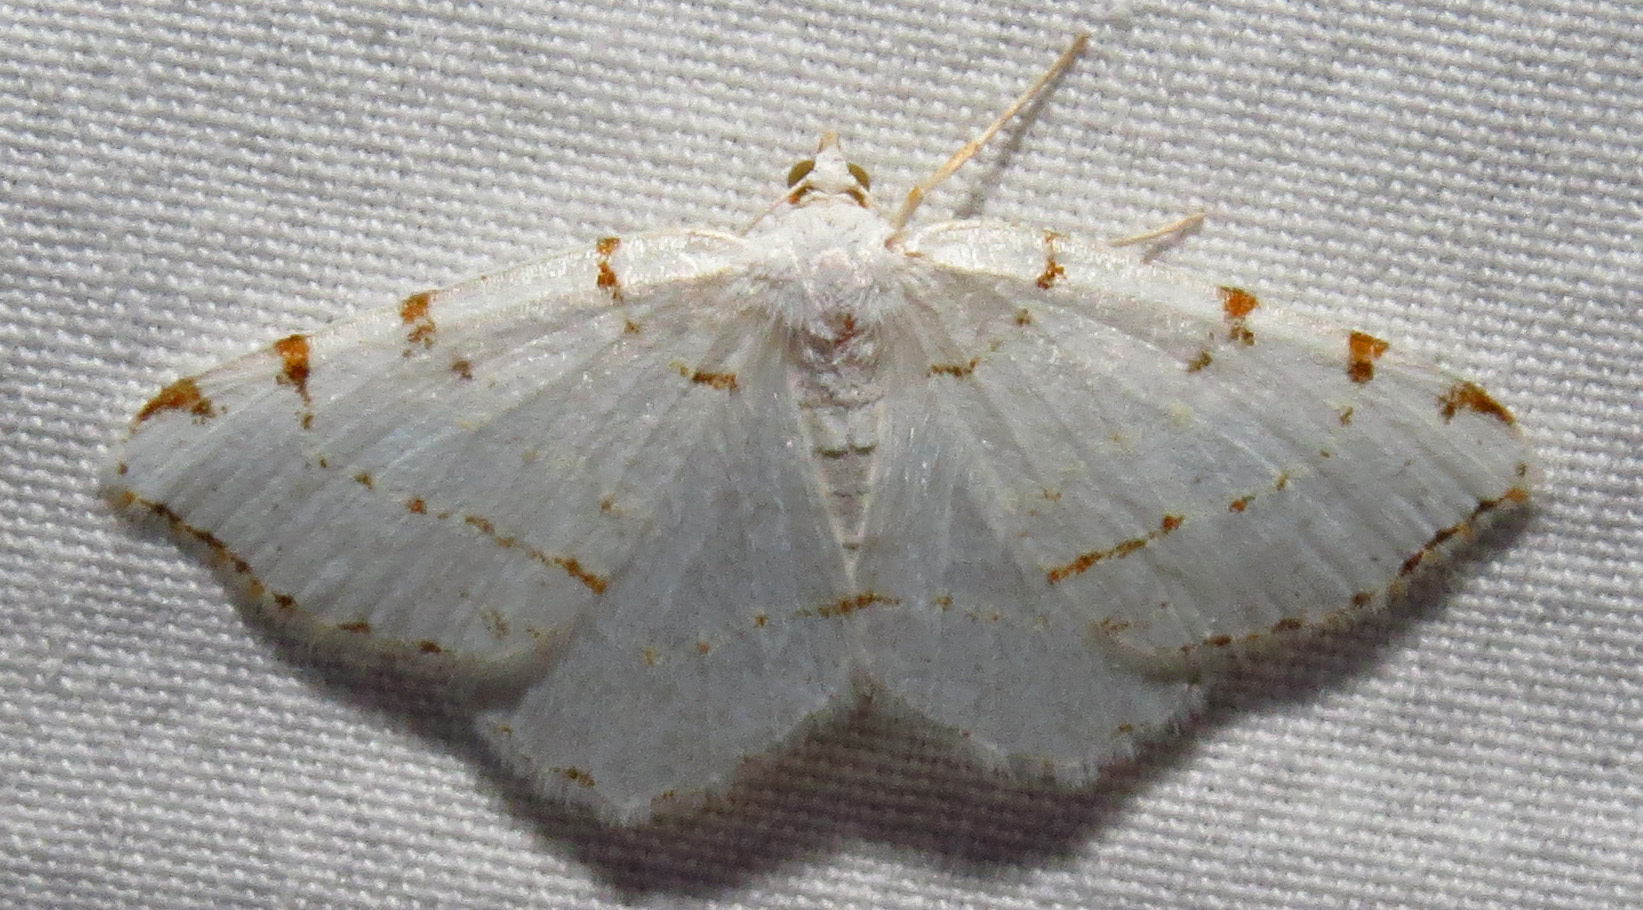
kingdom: Animalia
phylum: Arthropoda
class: Insecta
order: Lepidoptera
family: Geometridae
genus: Macaria
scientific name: Macaria pustularia
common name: Lesser maple spanworm moth
